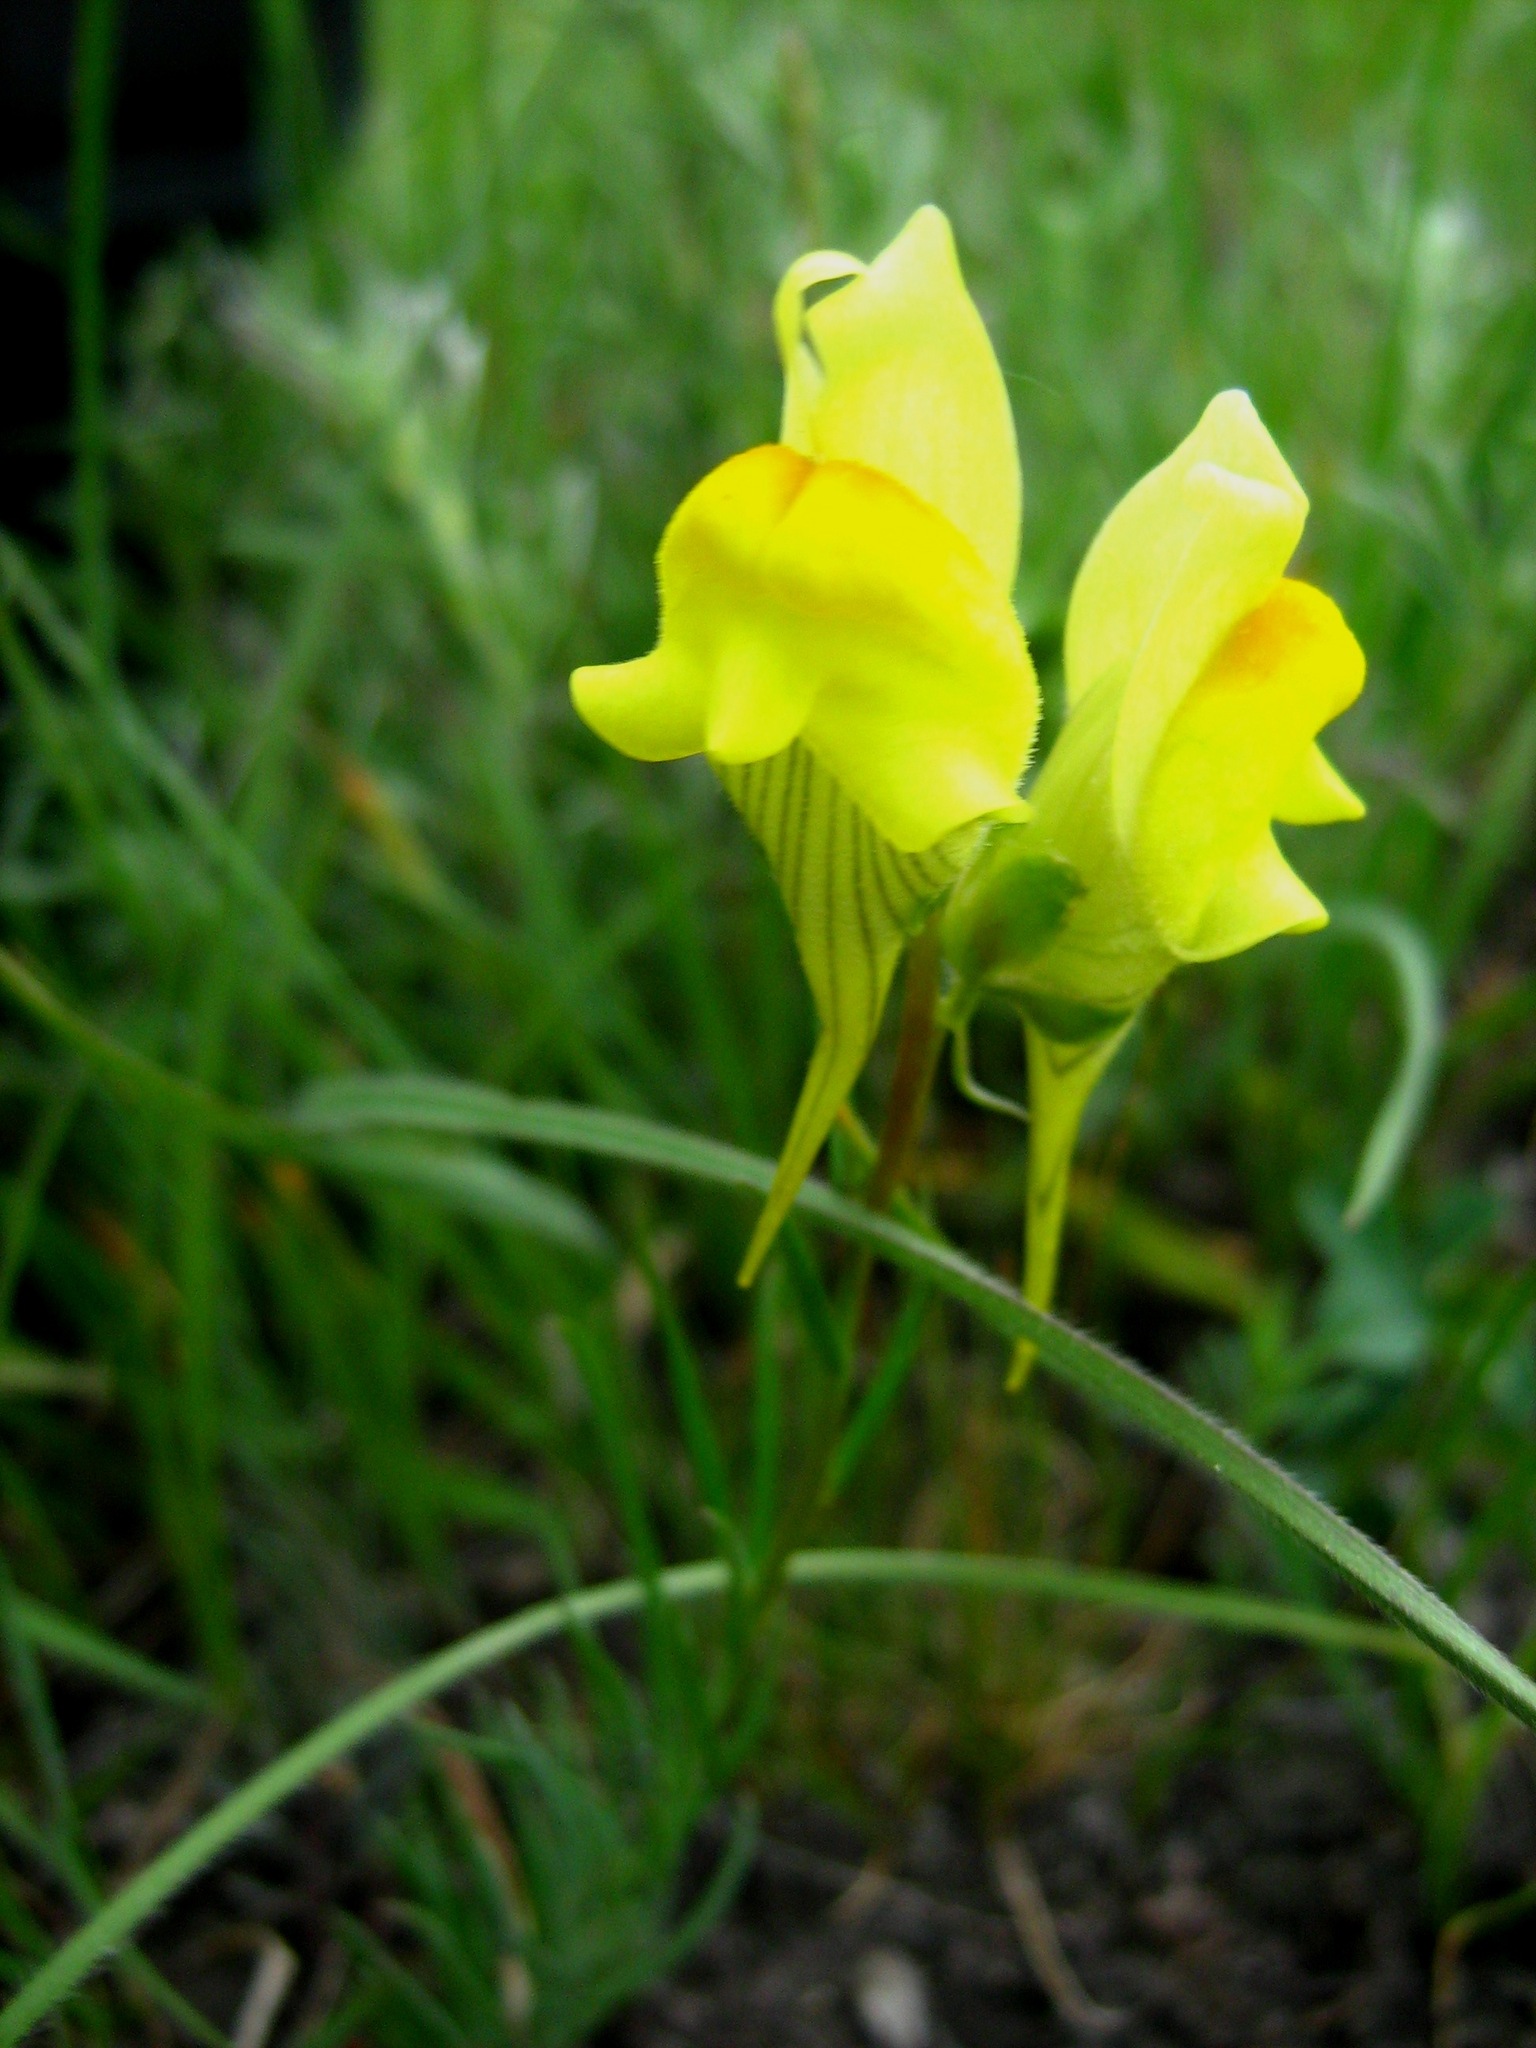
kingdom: Plantae
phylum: Tracheophyta
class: Magnoliopsida
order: Lamiales
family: Plantaginaceae
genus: Linaria
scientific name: Linaria vulgaris
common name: Butter and eggs
